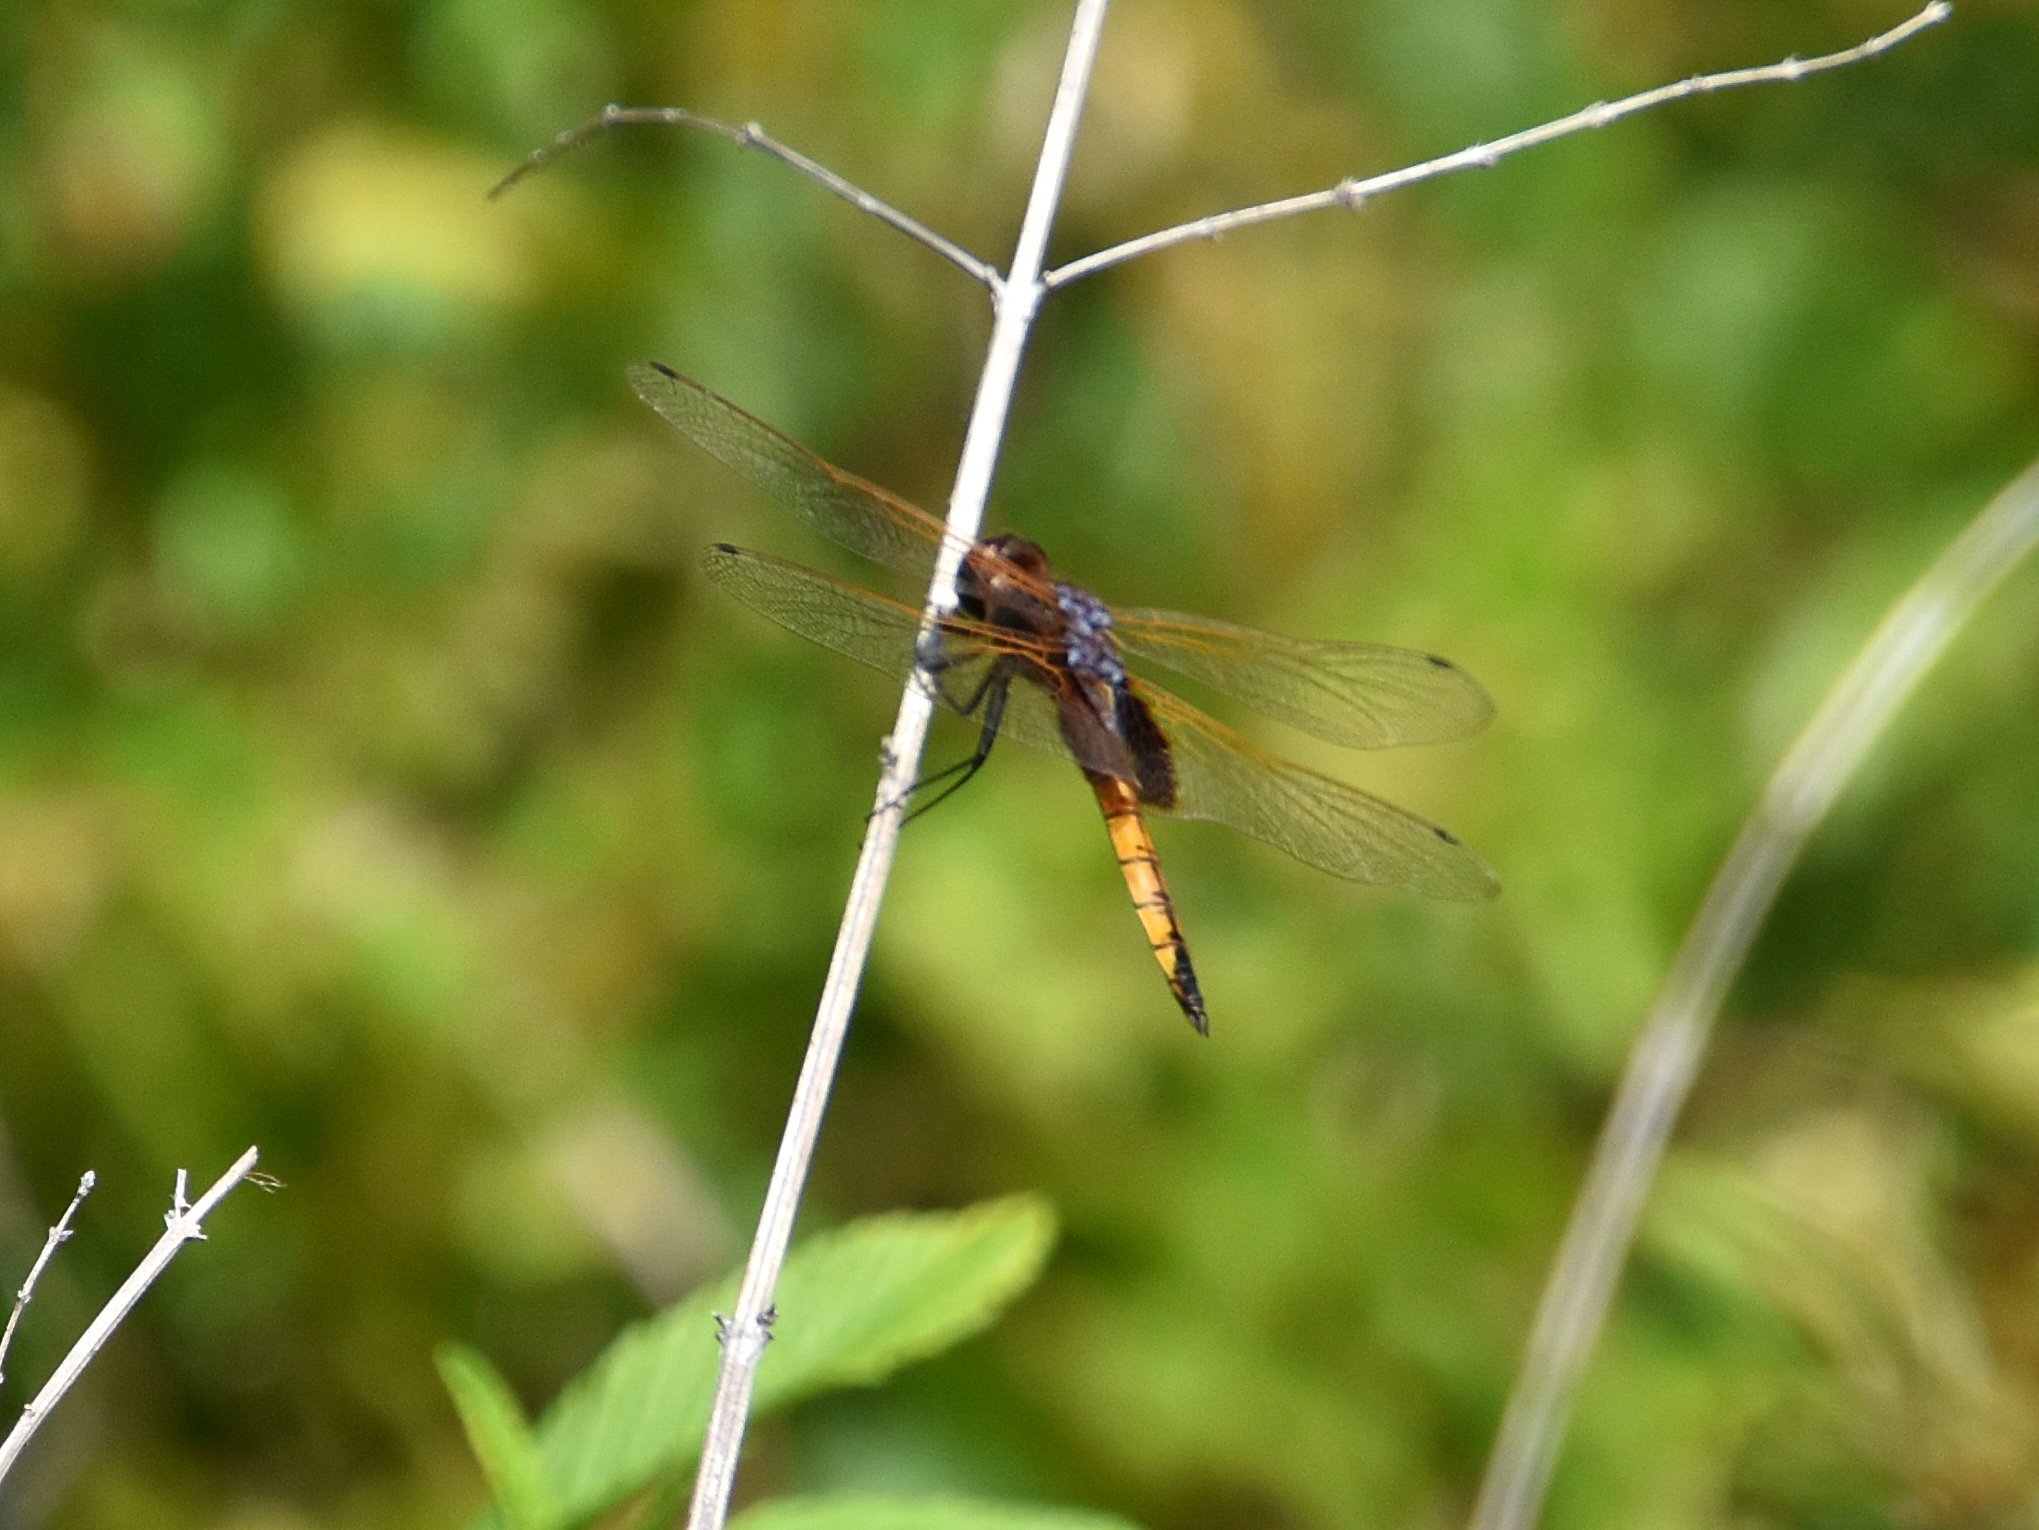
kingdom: Animalia
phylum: Arthropoda
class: Insecta
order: Odonata
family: Libellulidae
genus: Miathyria
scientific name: Miathyria marcella
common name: Hyacinth glider
